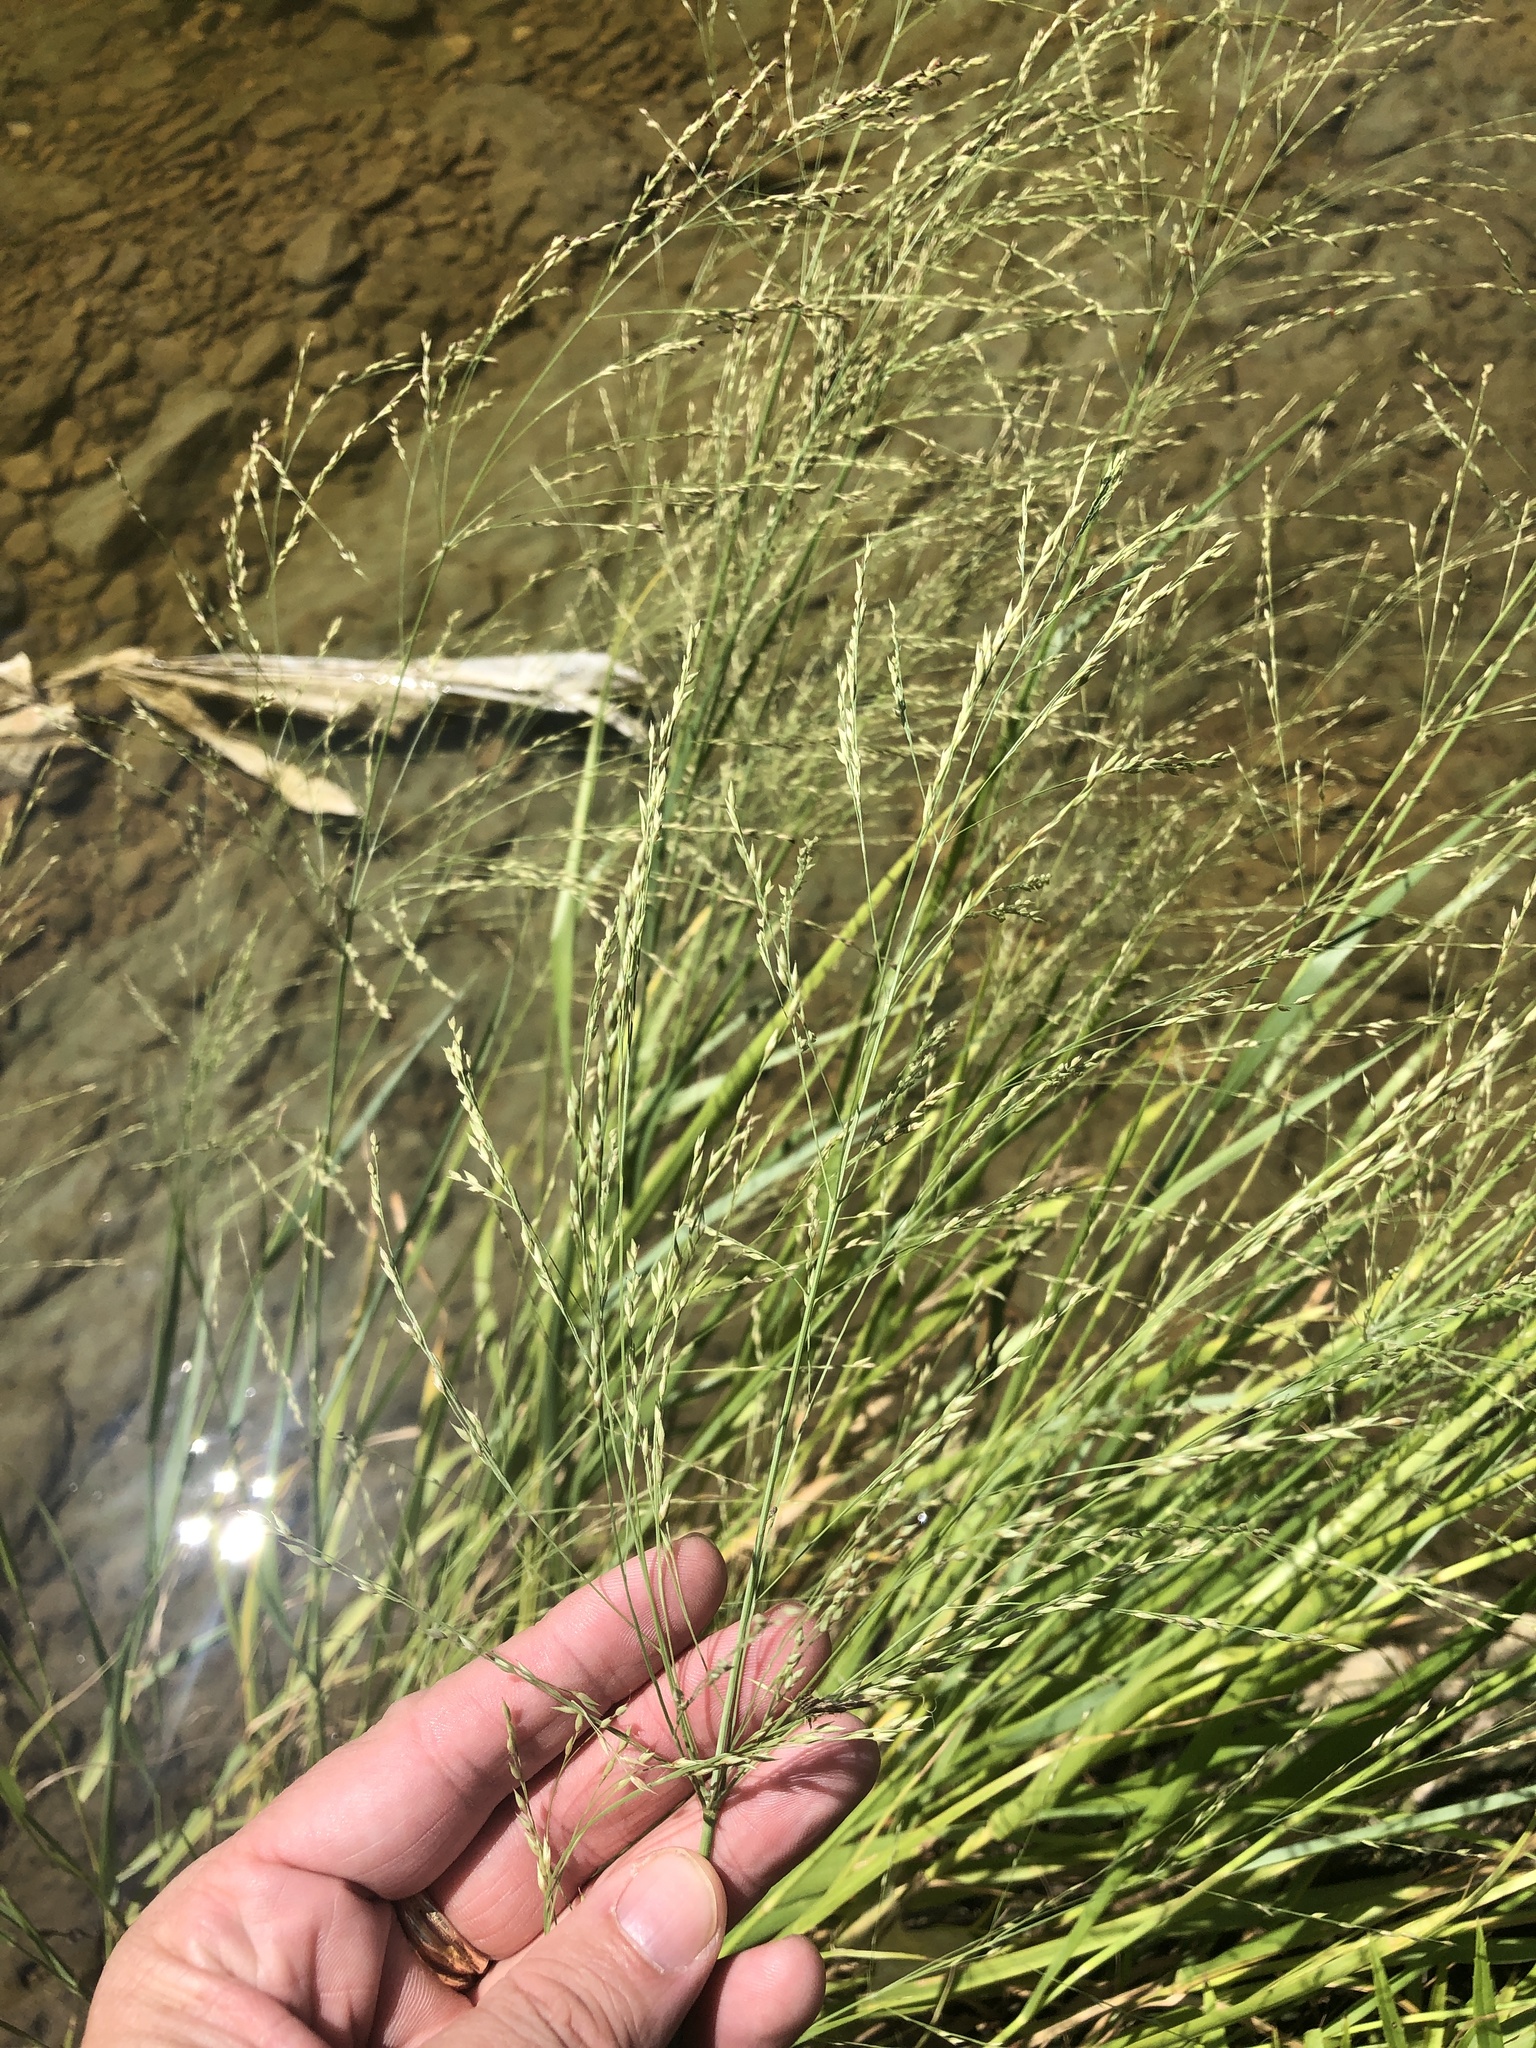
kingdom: Plantae
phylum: Tracheophyta
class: Liliopsida
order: Poales
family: Poaceae
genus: Panicum
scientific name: Panicum virgatum
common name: Switchgrass
